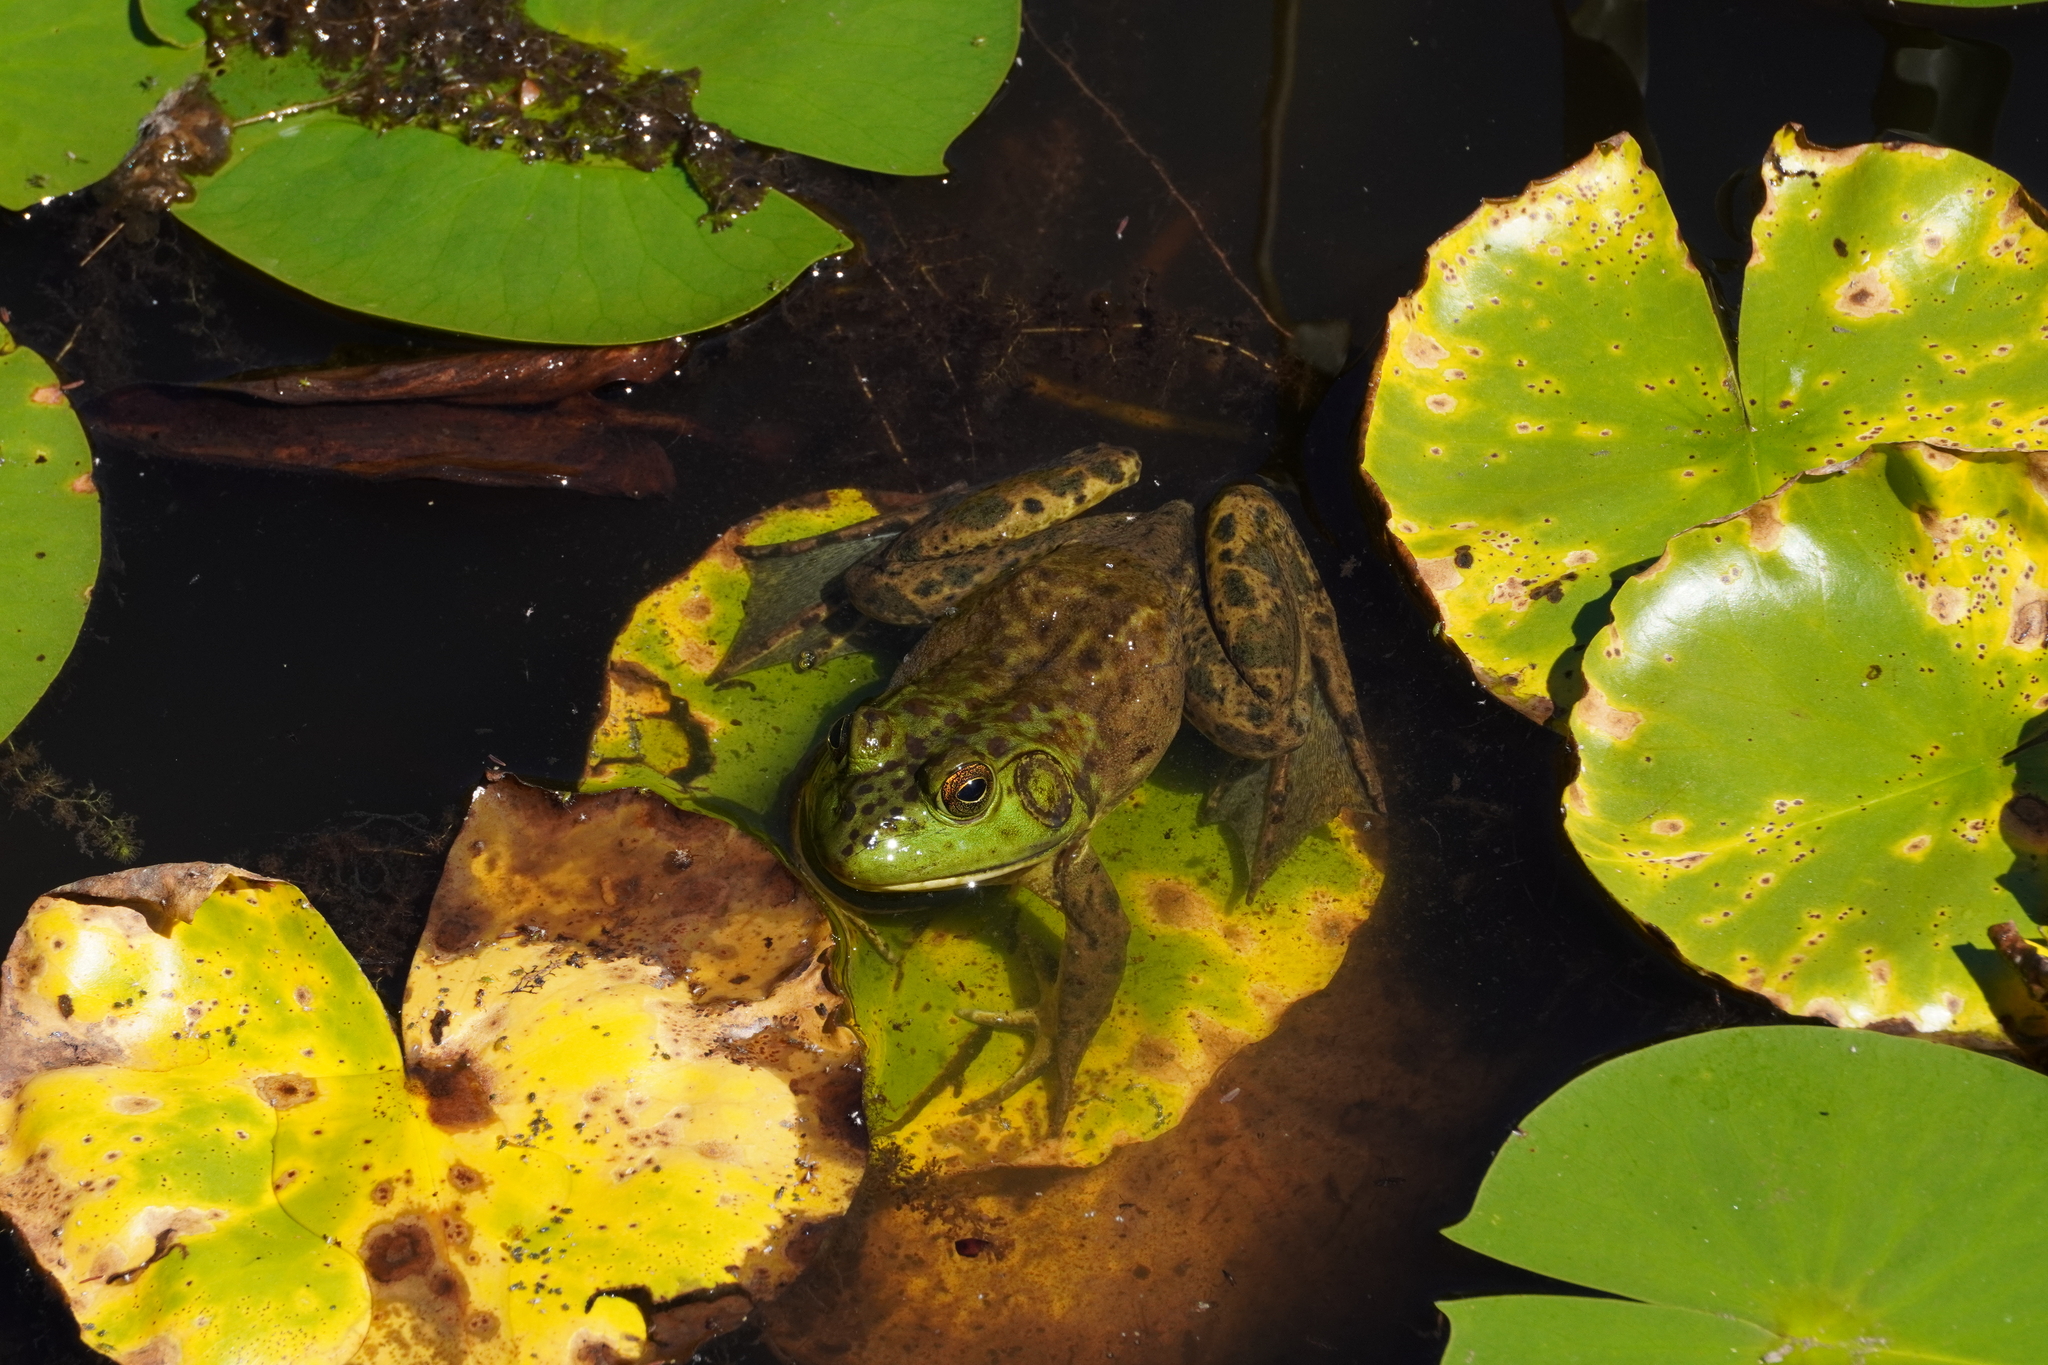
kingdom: Animalia
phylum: Chordata
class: Amphibia
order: Anura
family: Ranidae
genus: Lithobates
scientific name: Lithobates catesbeianus
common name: American bullfrog
